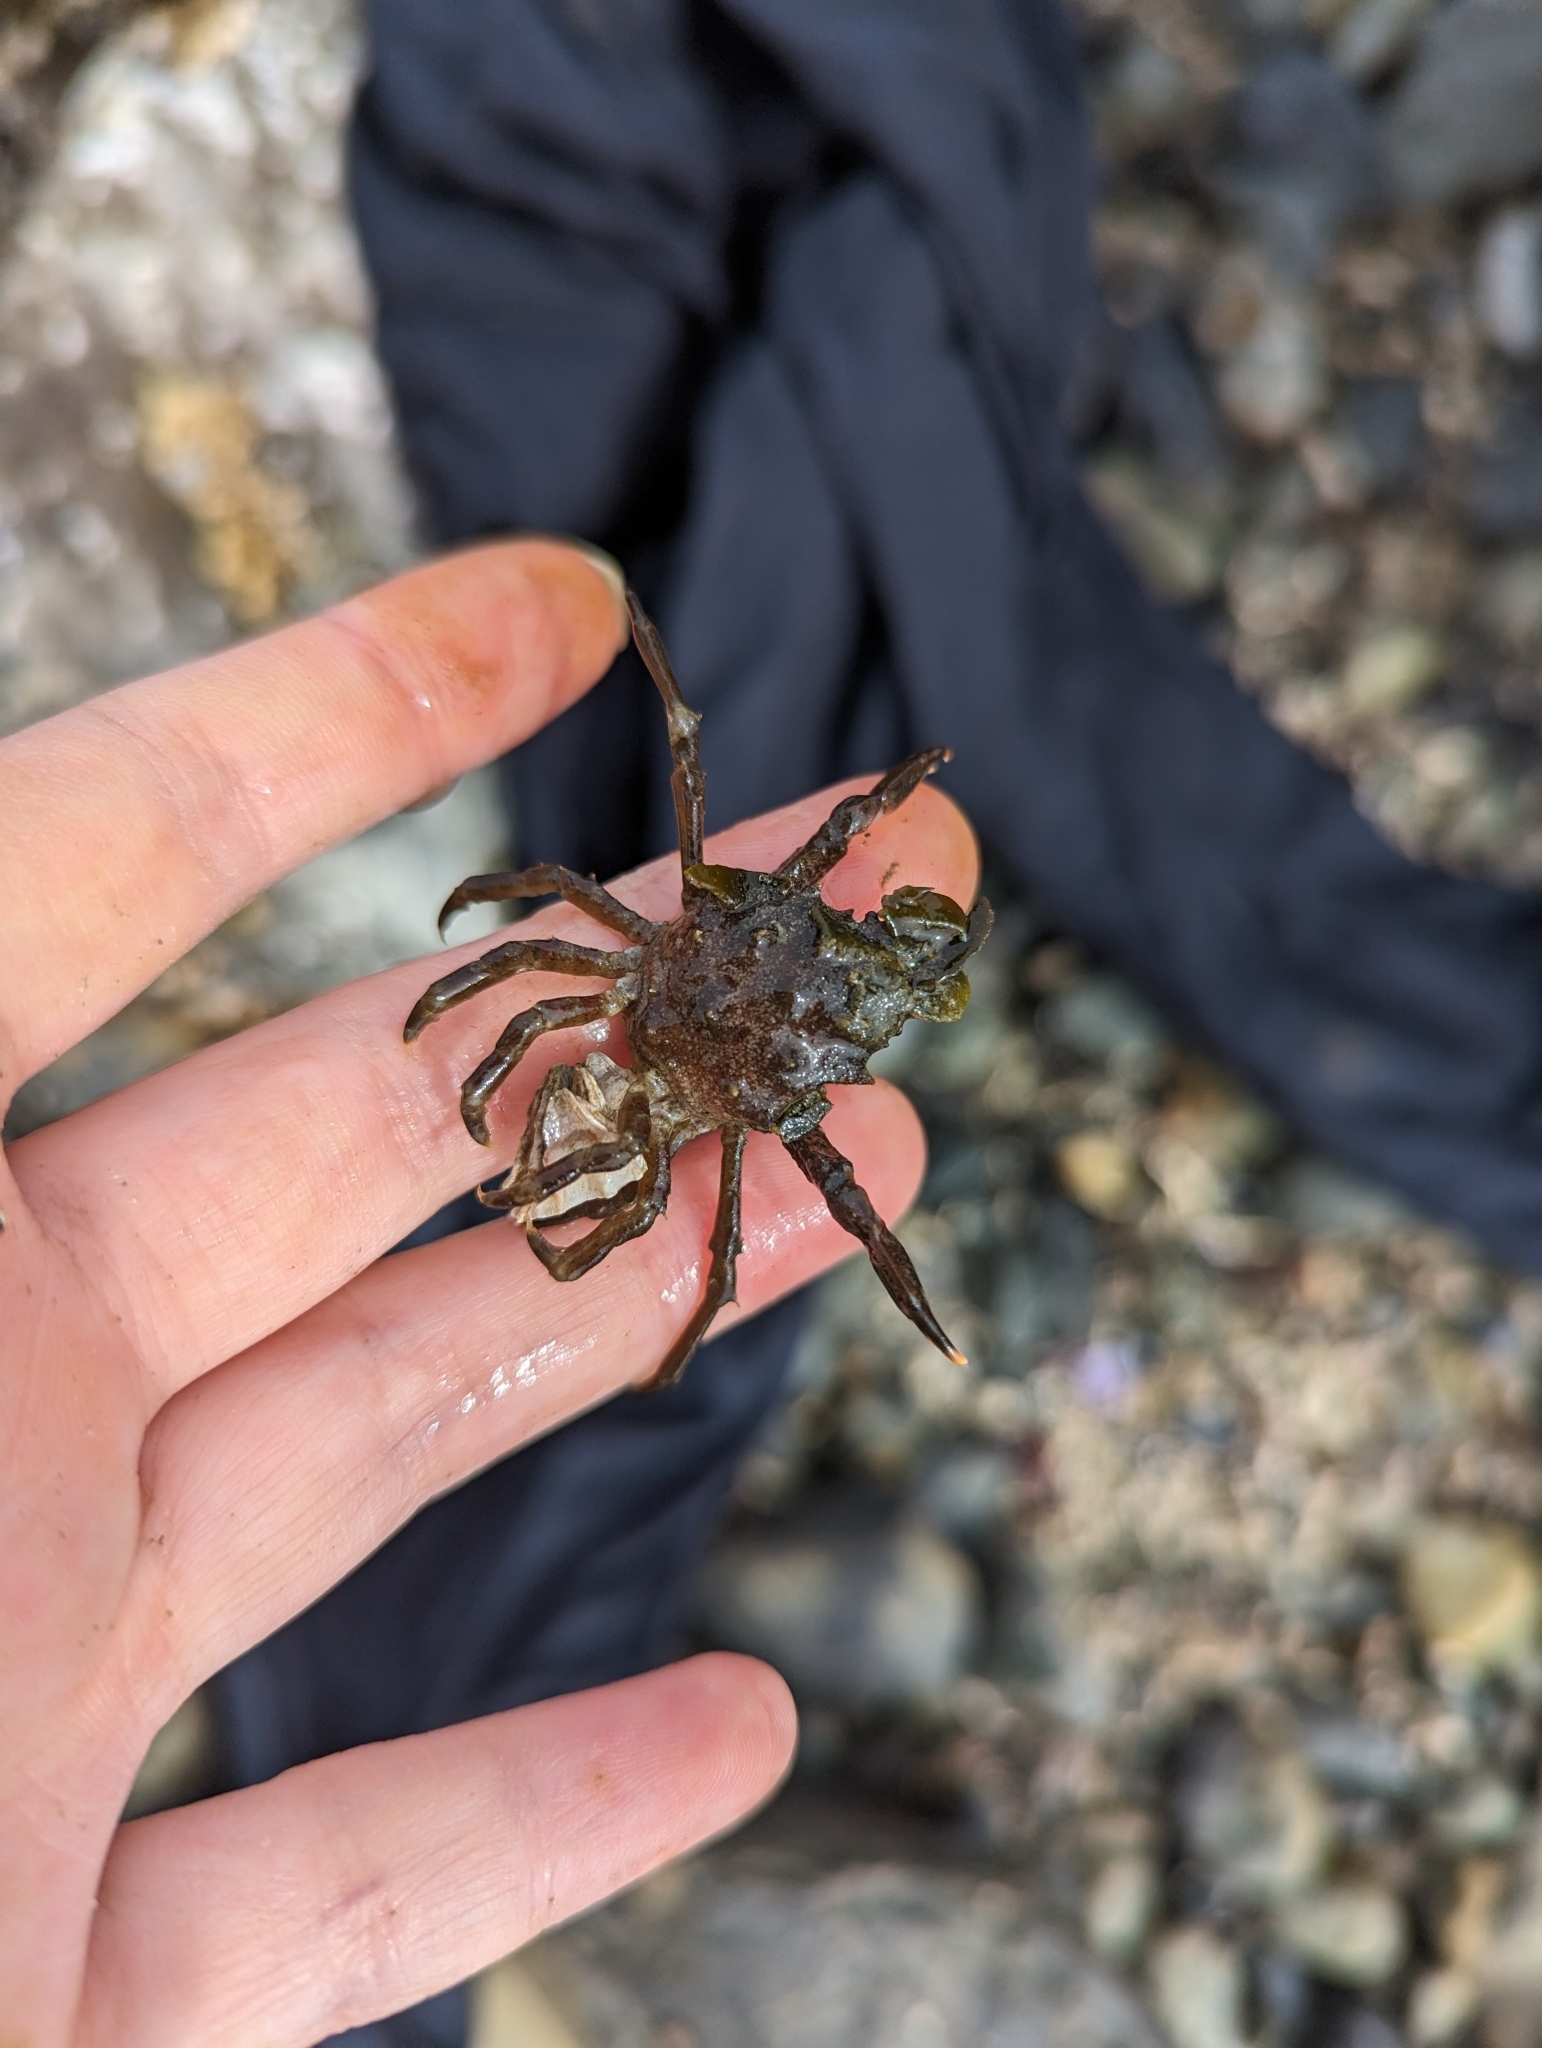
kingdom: Animalia
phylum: Arthropoda
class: Malacostraca
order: Decapoda
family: Epialtidae
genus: Pugettia
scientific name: Pugettia gracilis
